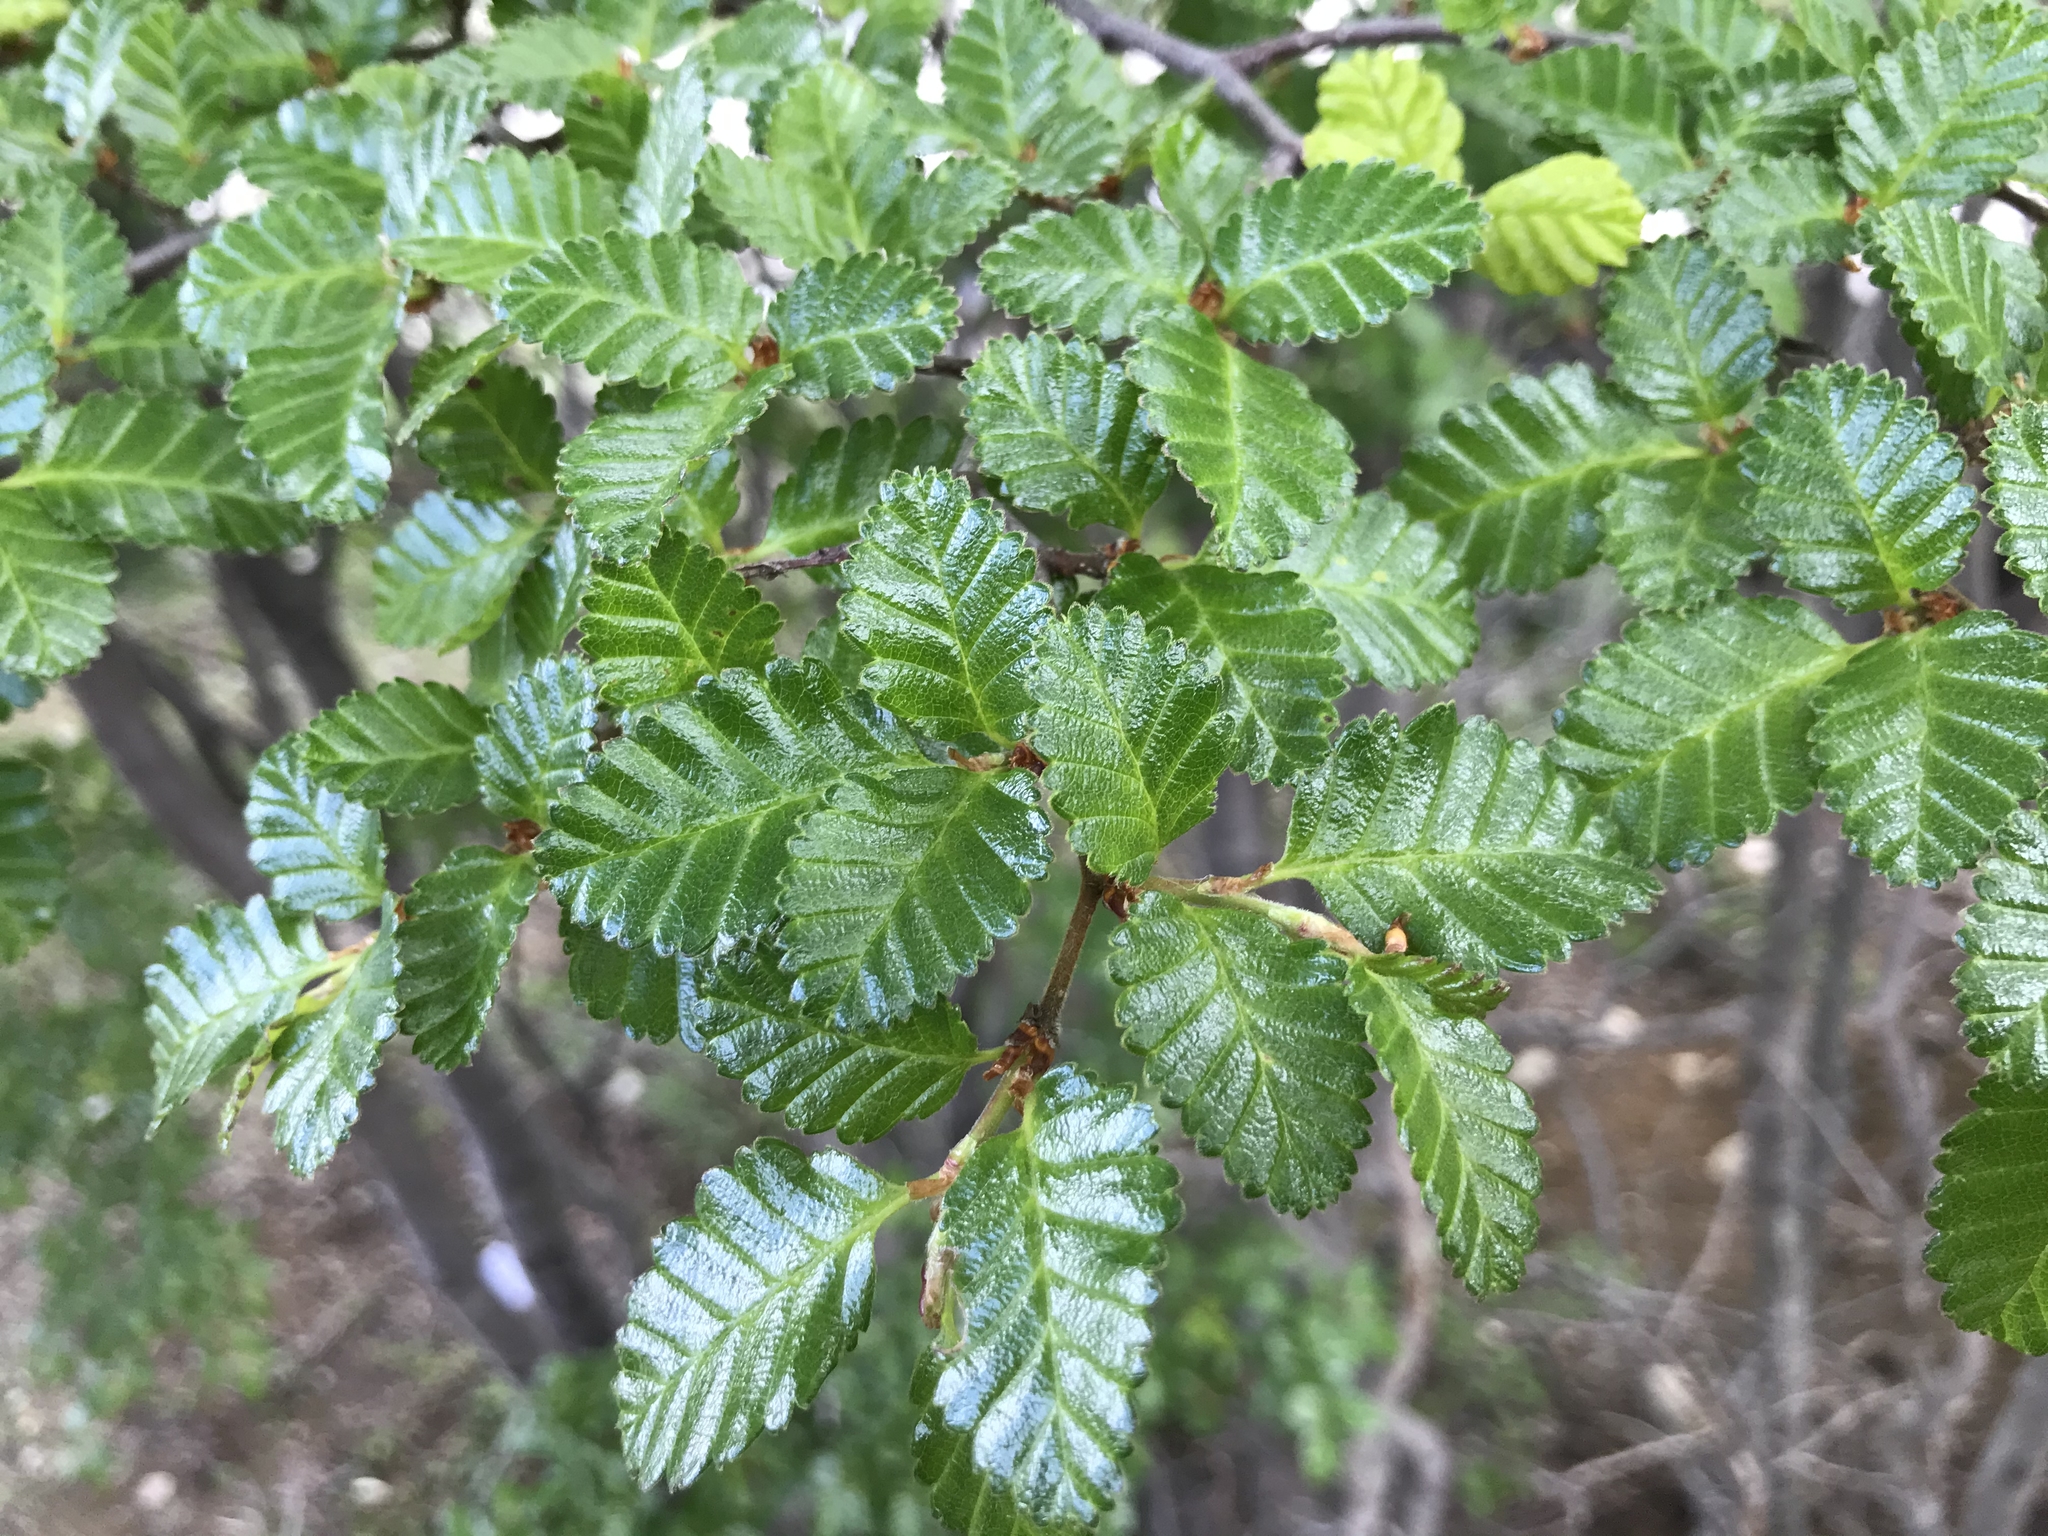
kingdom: Plantae
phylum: Tracheophyta
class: Magnoliopsida
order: Fagales
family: Nothofagaceae
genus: Nothofagus
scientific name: Nothofagus pumilio
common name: Lenga beech
